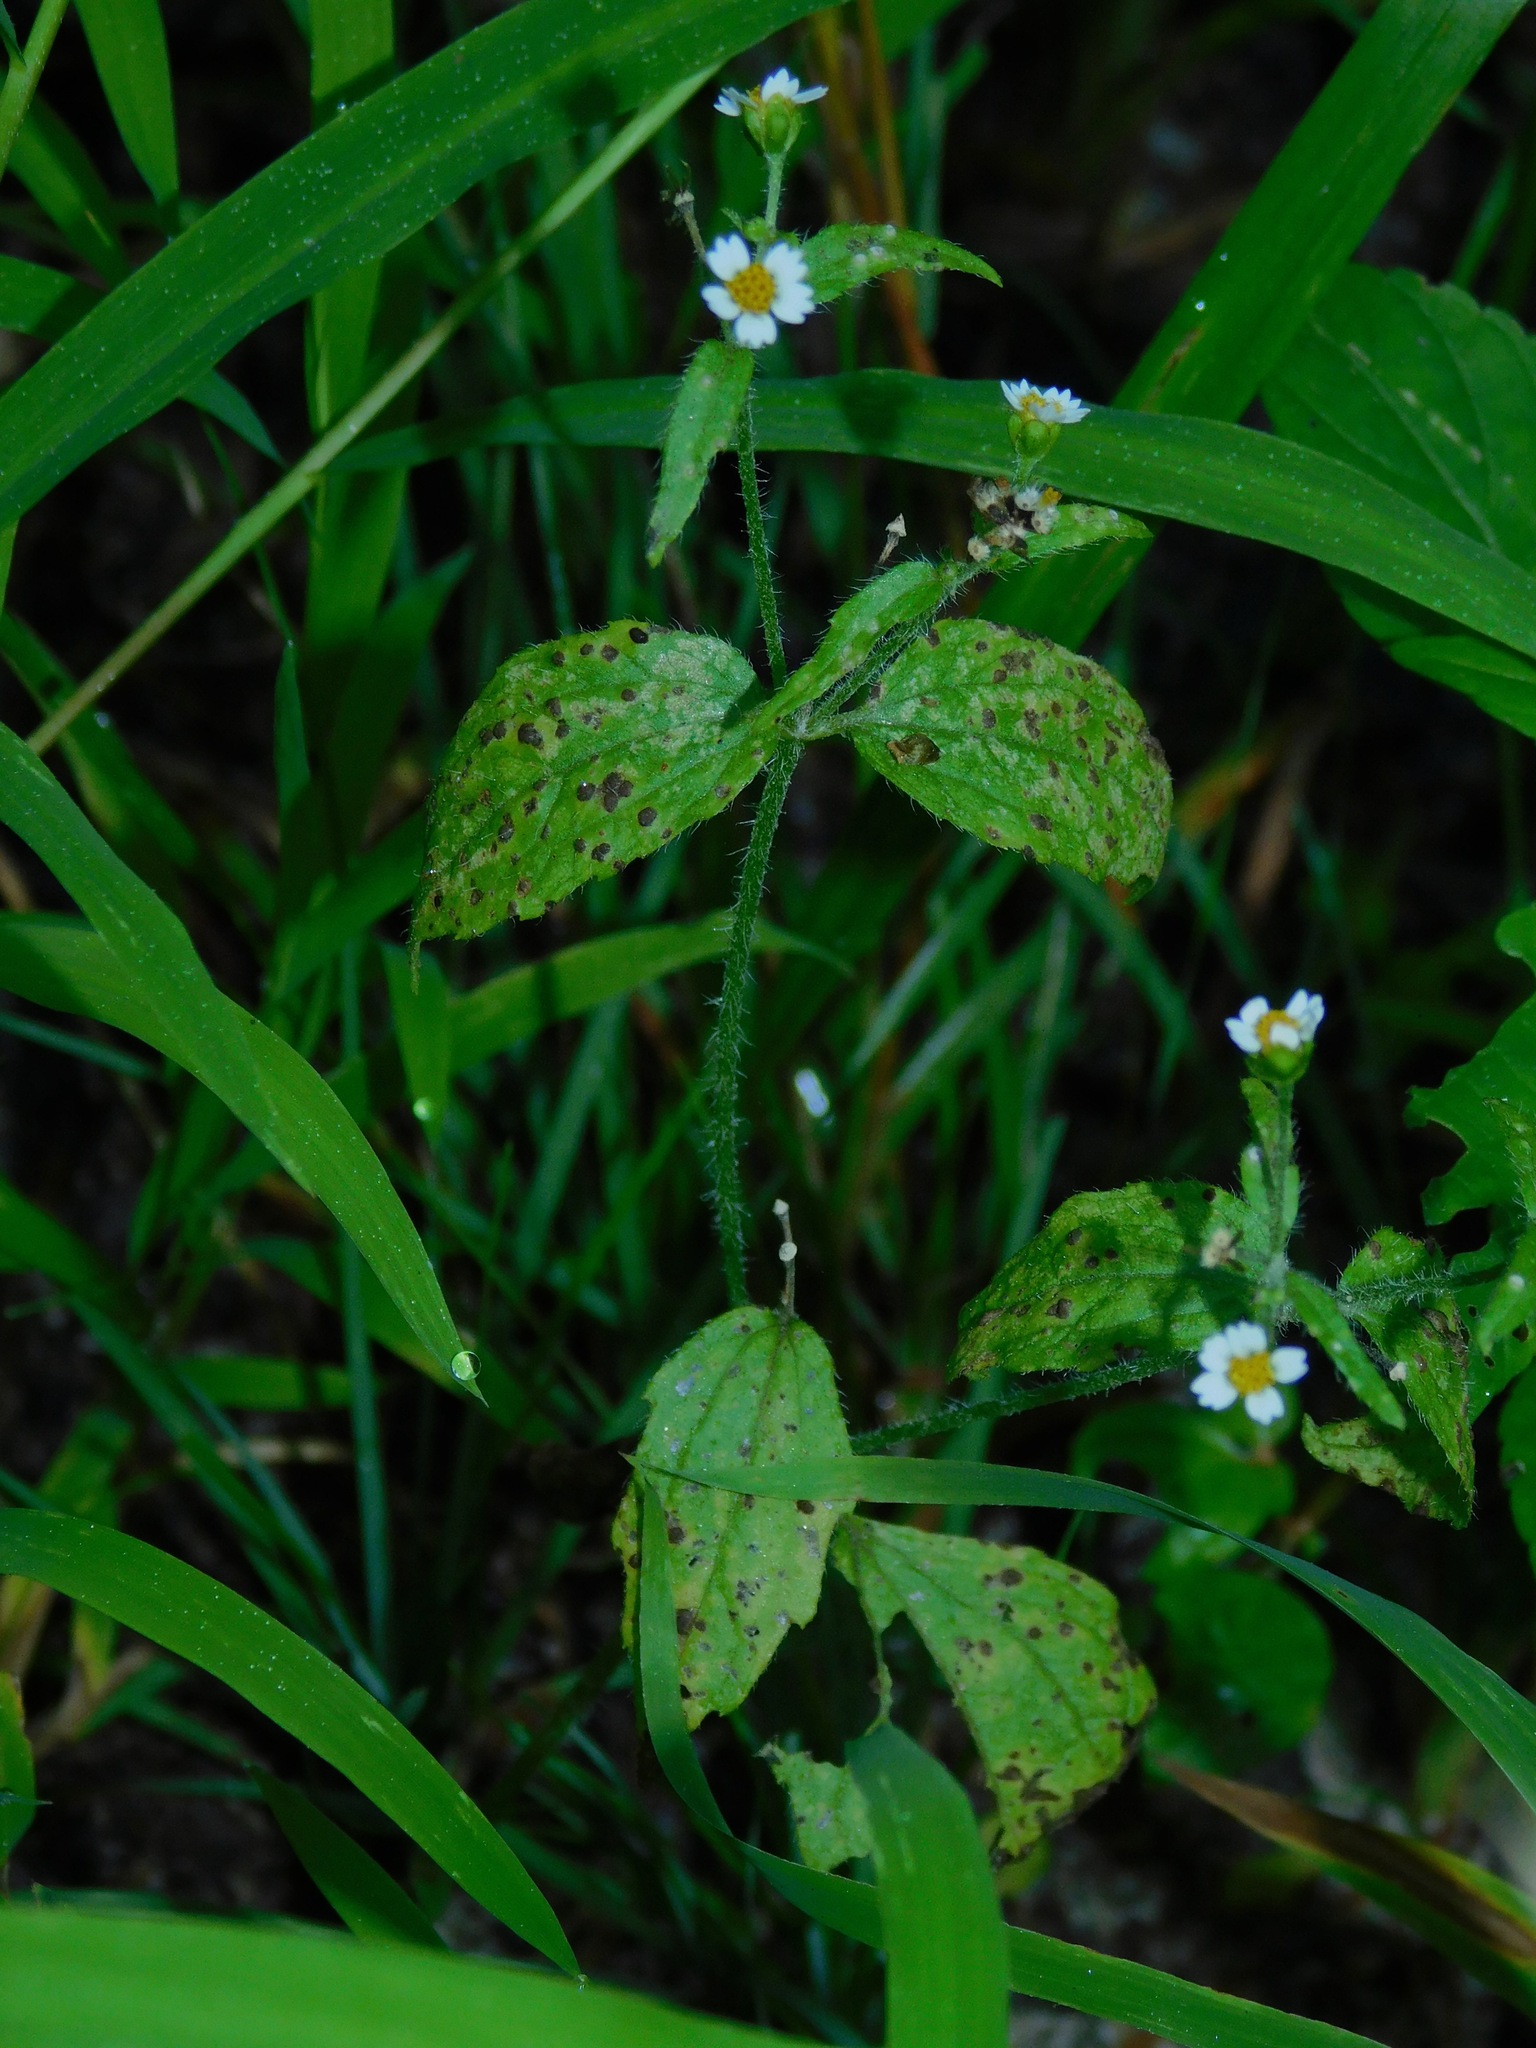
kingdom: Plantae
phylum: Tracheophyta
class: Magnoliopsida
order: Asterales
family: Asteraceae
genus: Galinsoga
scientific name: Galinsoga quadriradiata
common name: Shaggy soldier
